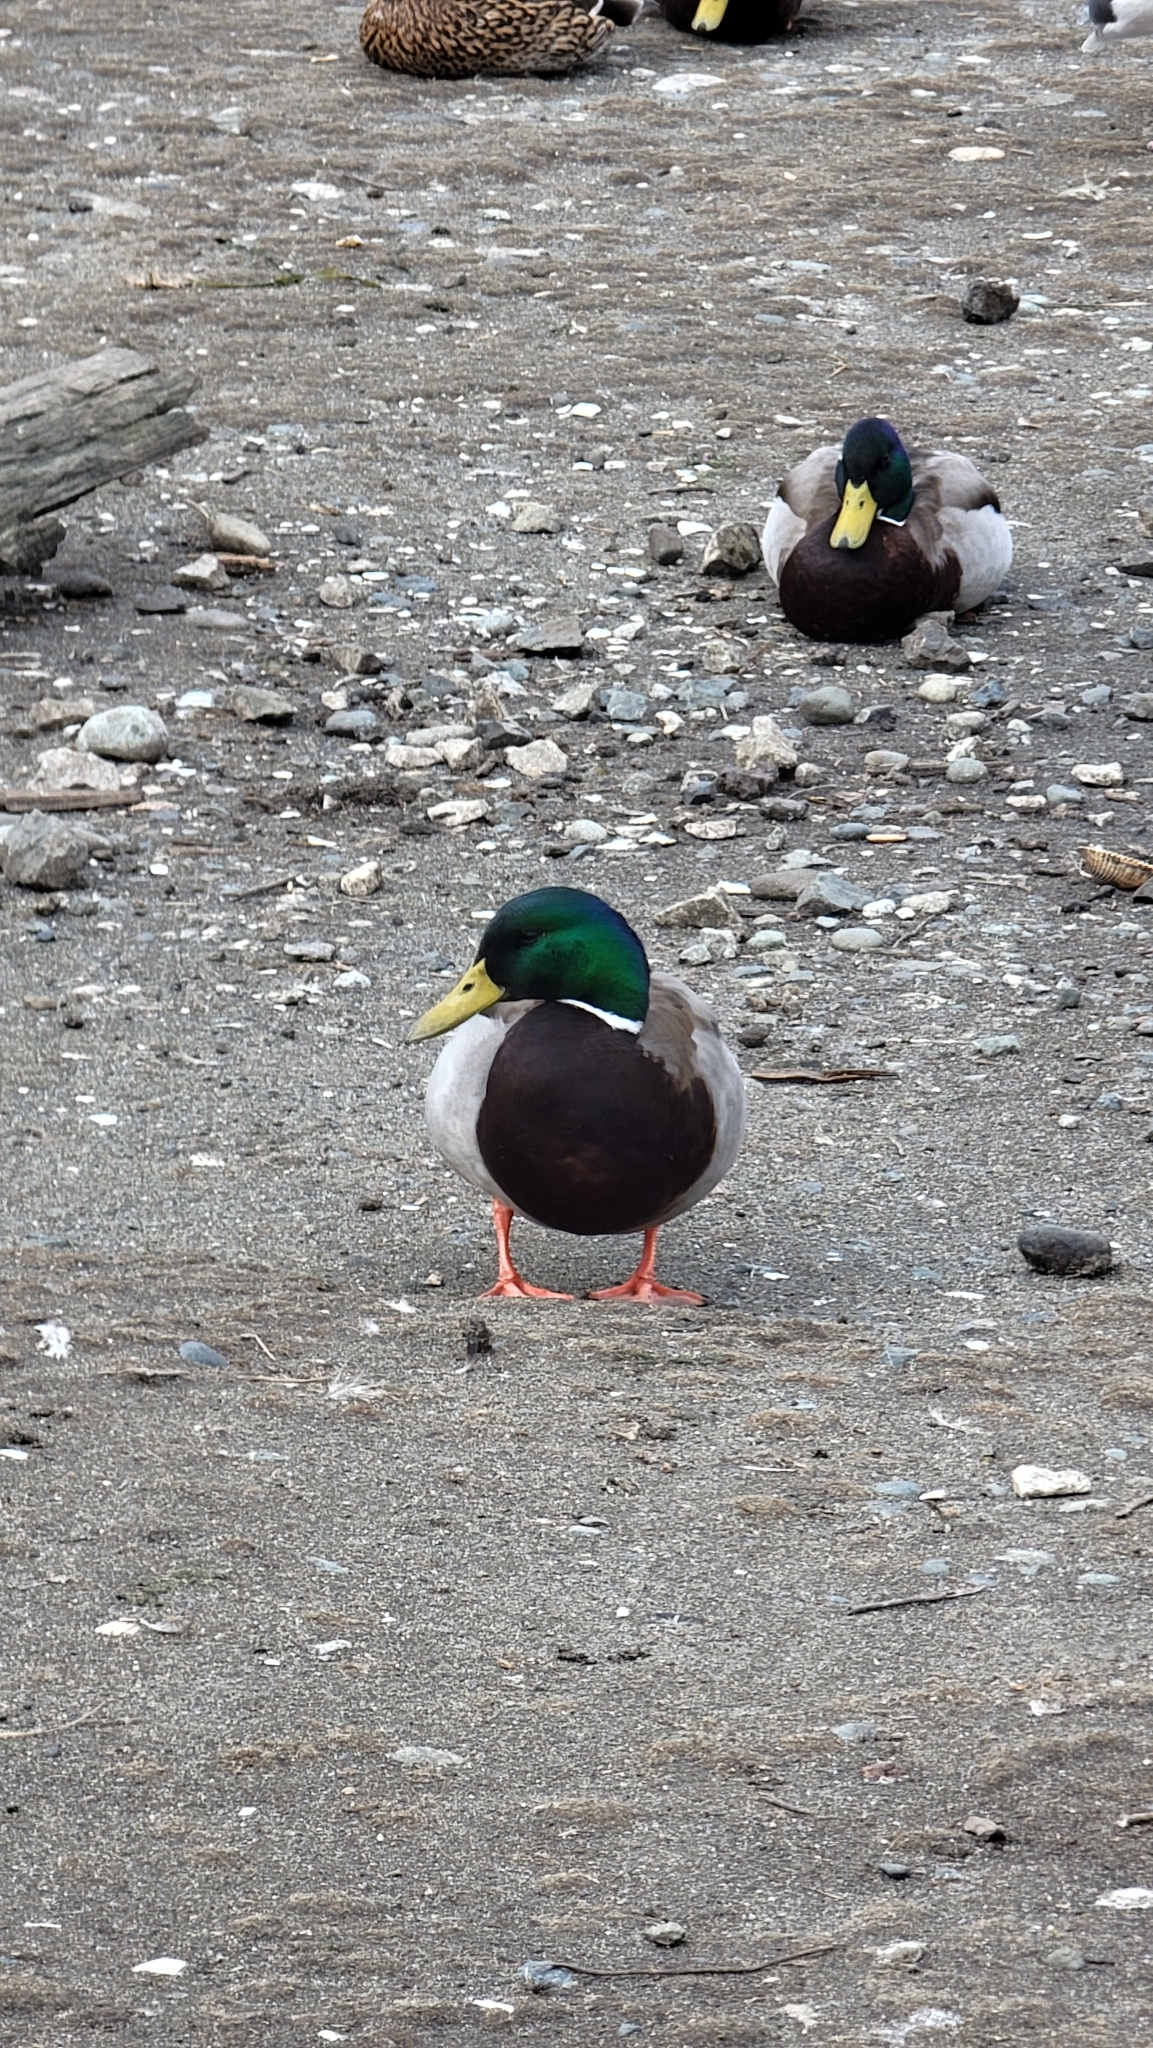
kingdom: Animalia
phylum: Chordata
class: Aves
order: Anseriformes
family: Anatidae
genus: Anas
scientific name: Anas platyrhynchos
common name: Mallard
